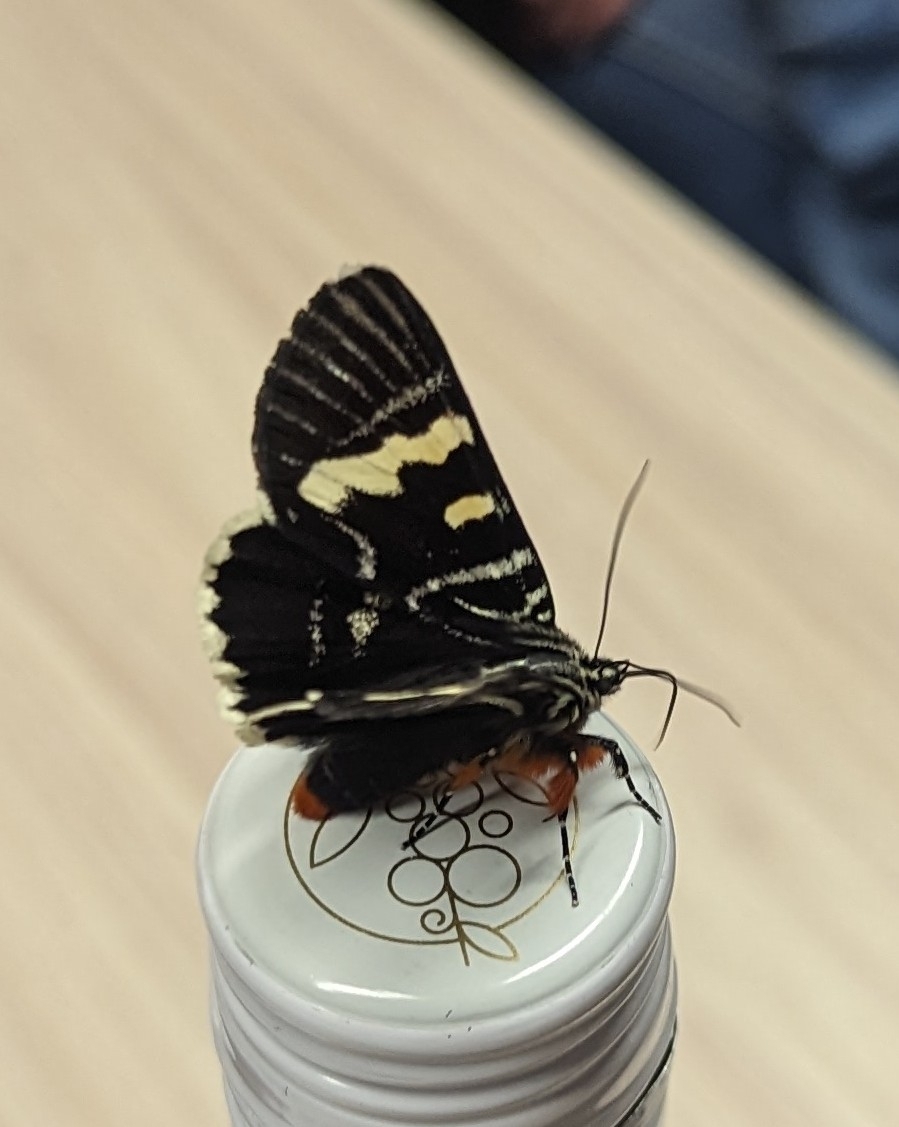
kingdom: Animalia
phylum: Arthropoda
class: Insecta
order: Lepidoptera
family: Noctuidae
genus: Phalaenoides
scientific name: Phalaenoides glycinae
